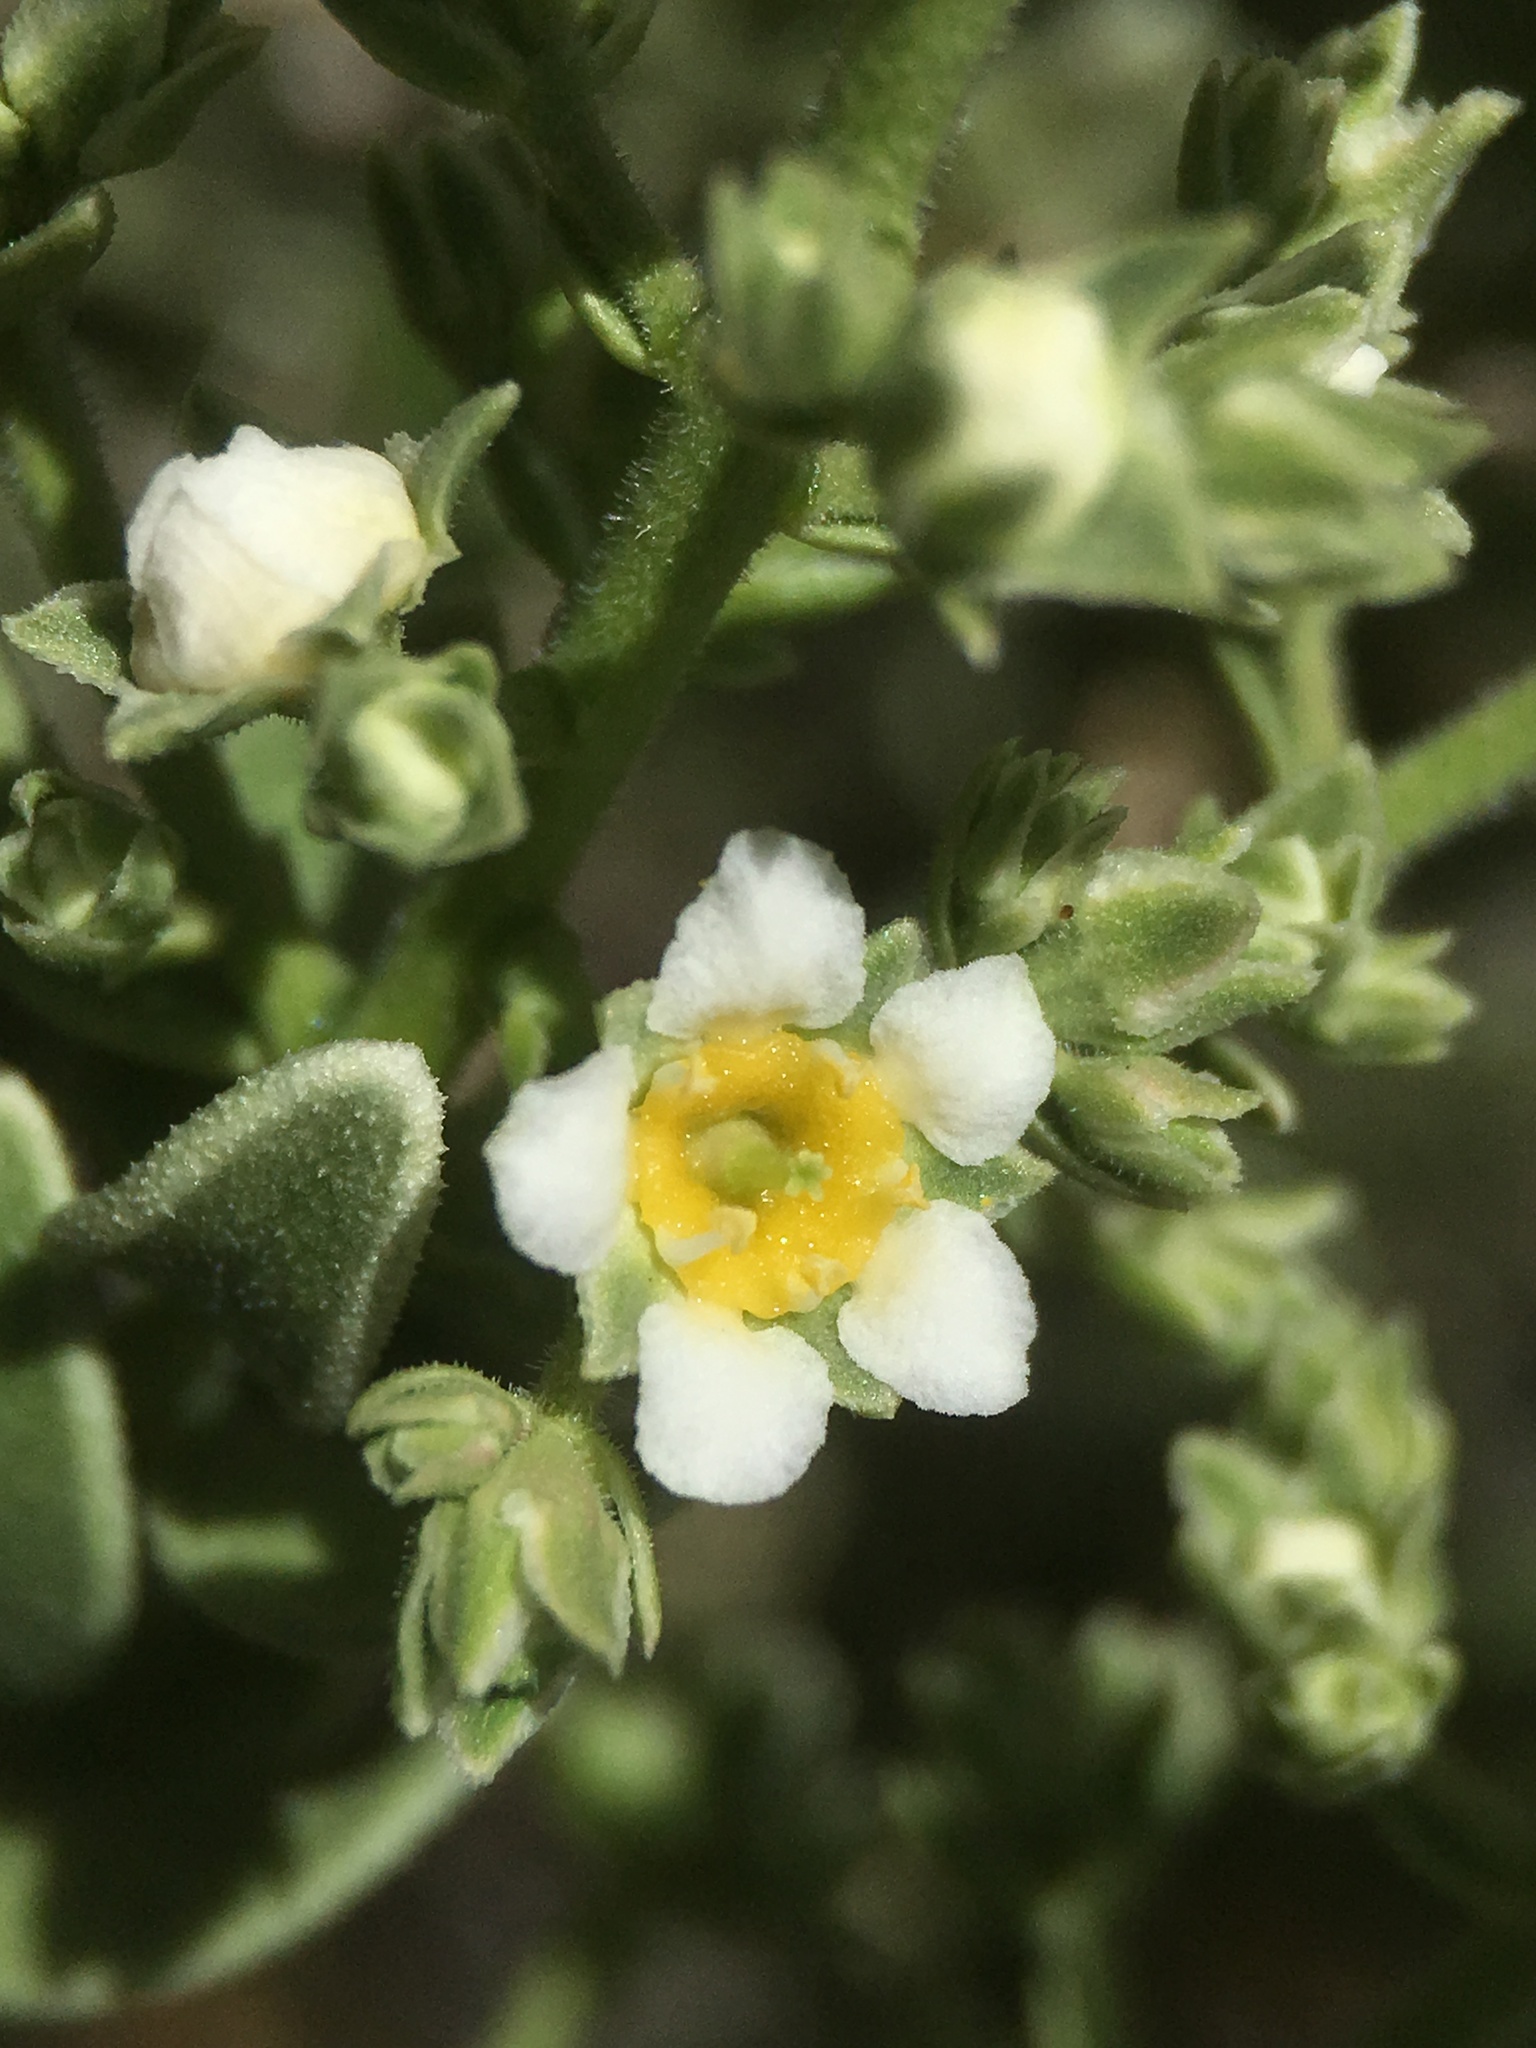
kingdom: Plantae
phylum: Tracheophyta
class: Magnoliopsida
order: Celastrales
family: Celastraceae
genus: Mortonia
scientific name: Mortonia utahensis
